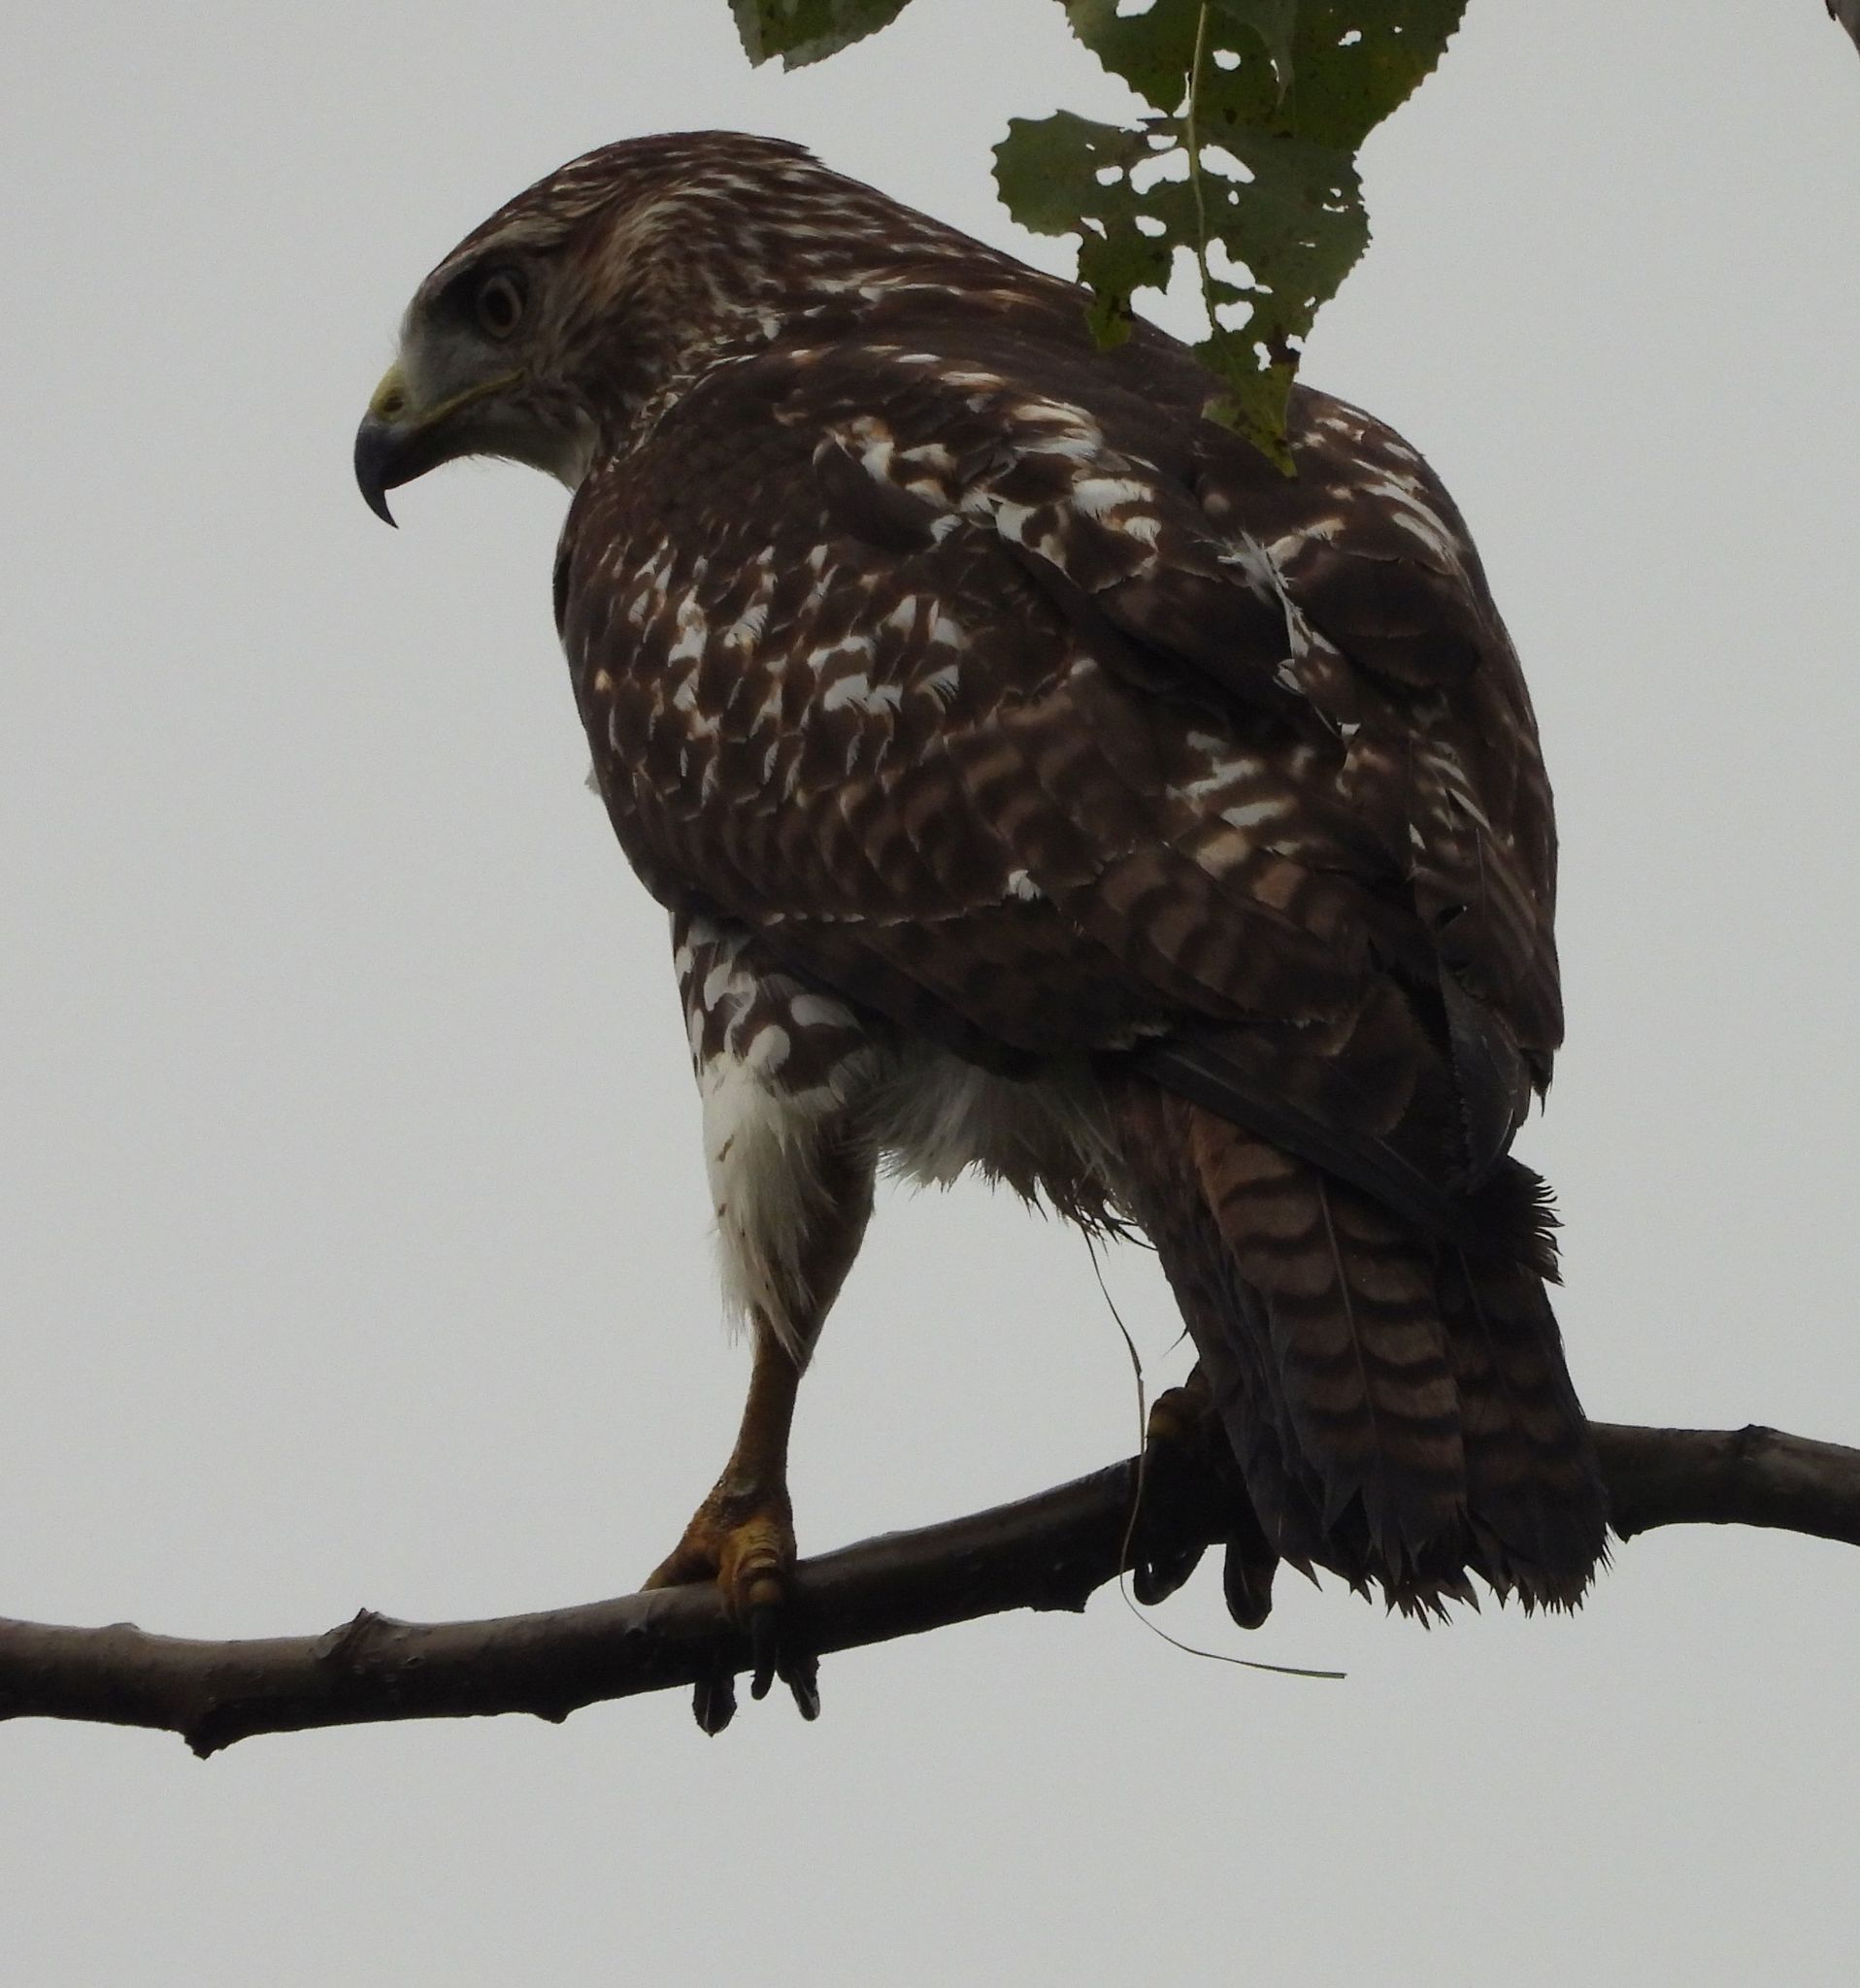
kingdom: Animalia
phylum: Chordata
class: Aves
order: Accipitriformes
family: Accipitridae
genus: Buteo
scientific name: Buteo jamaicensis
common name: Red-tailed hawk
